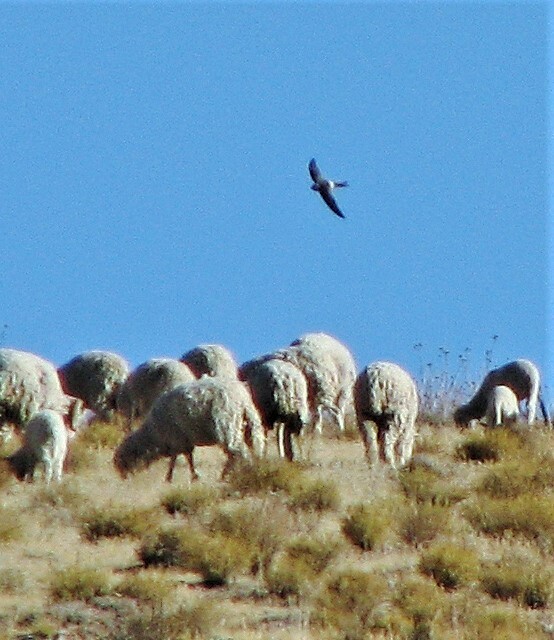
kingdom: Animalia
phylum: Chordata
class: Aves
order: Apodiformes
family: Apodidae
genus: Aeronautes
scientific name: Aeronautes andecolus
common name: Andean swift
